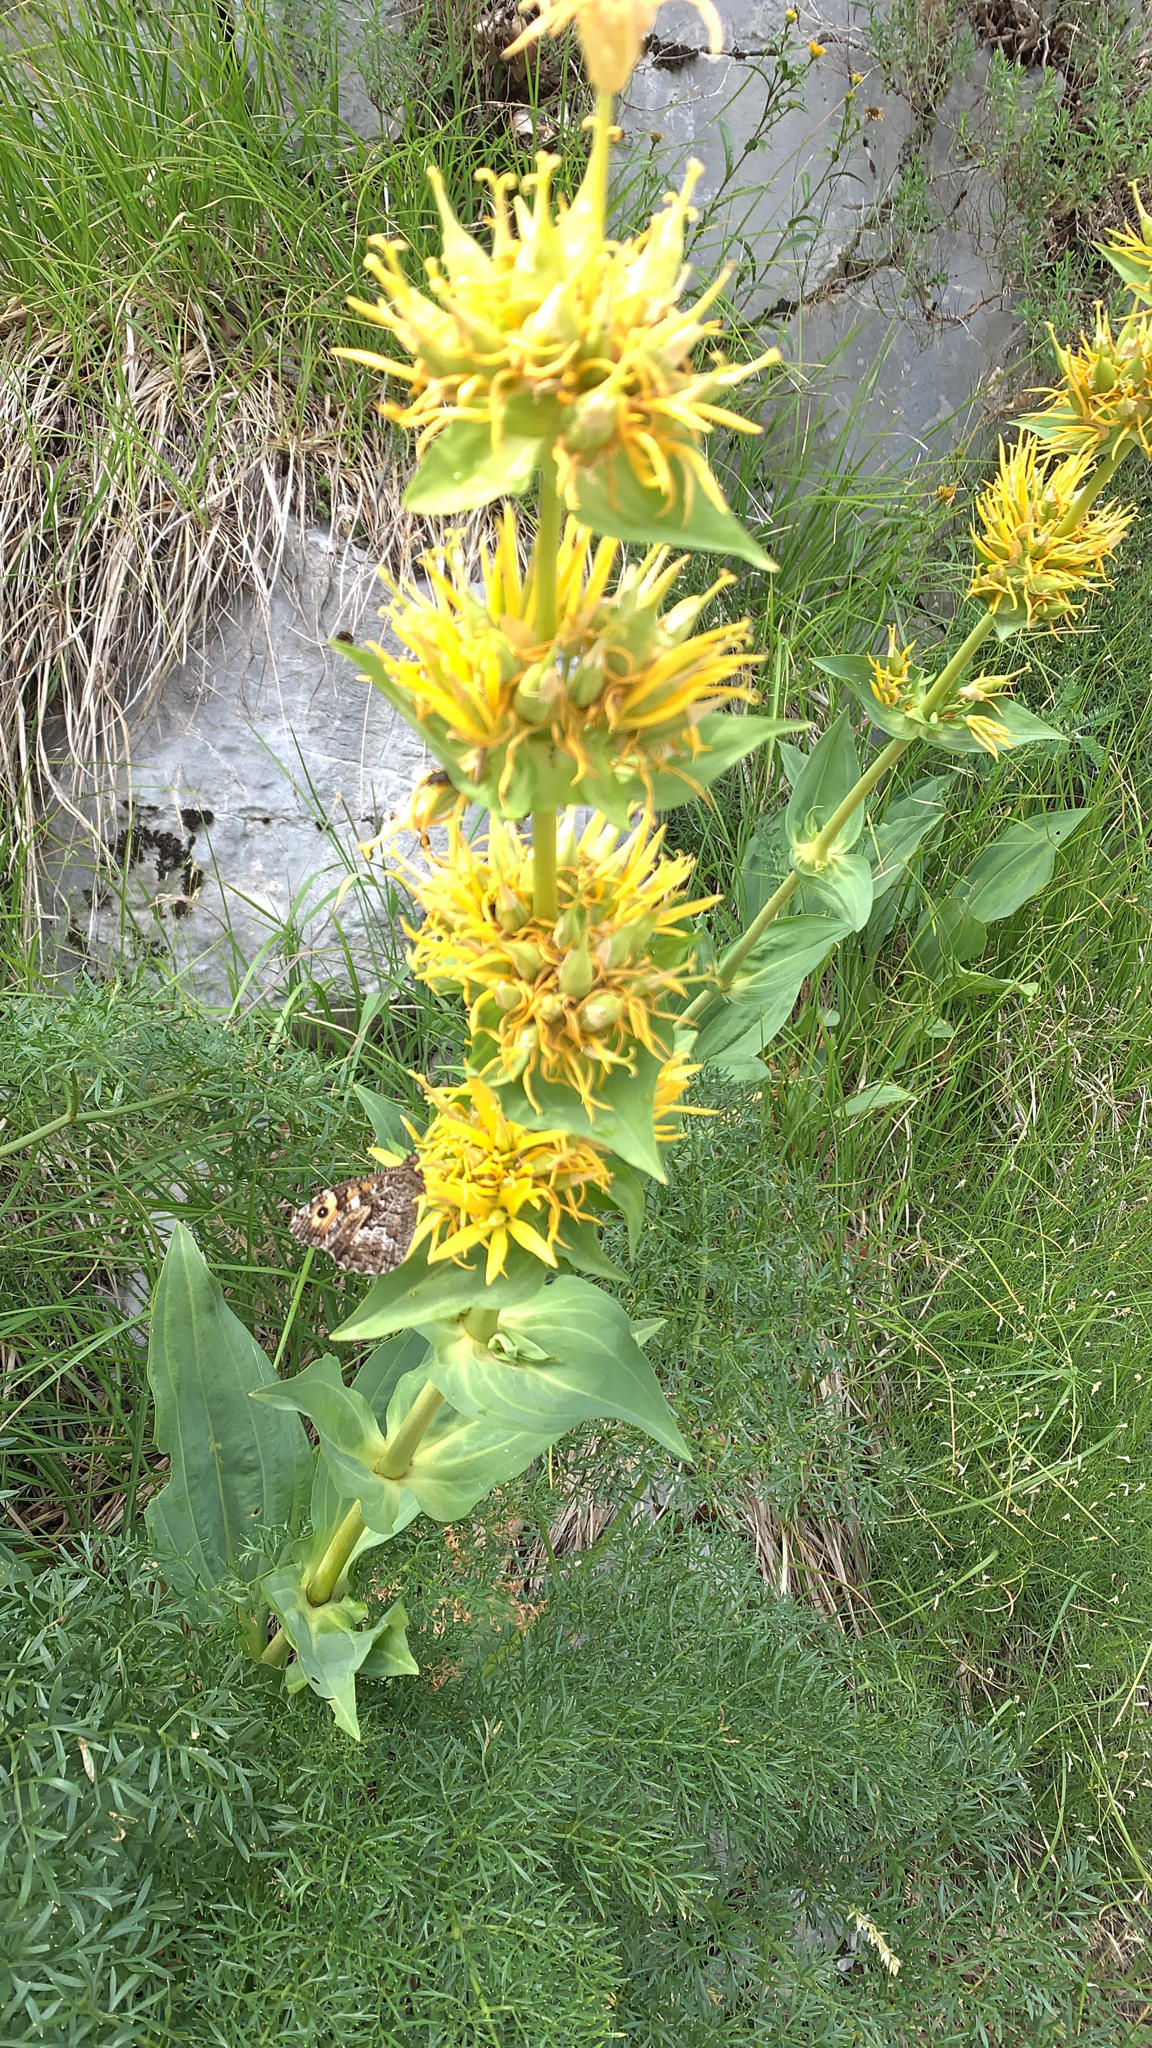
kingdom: Plantae
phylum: Tracheophyta
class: Magnoliopsida
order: Gentianales
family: Gentianaceae
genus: Gentiana
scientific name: Gentiana lutea
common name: Great yellow gentian
